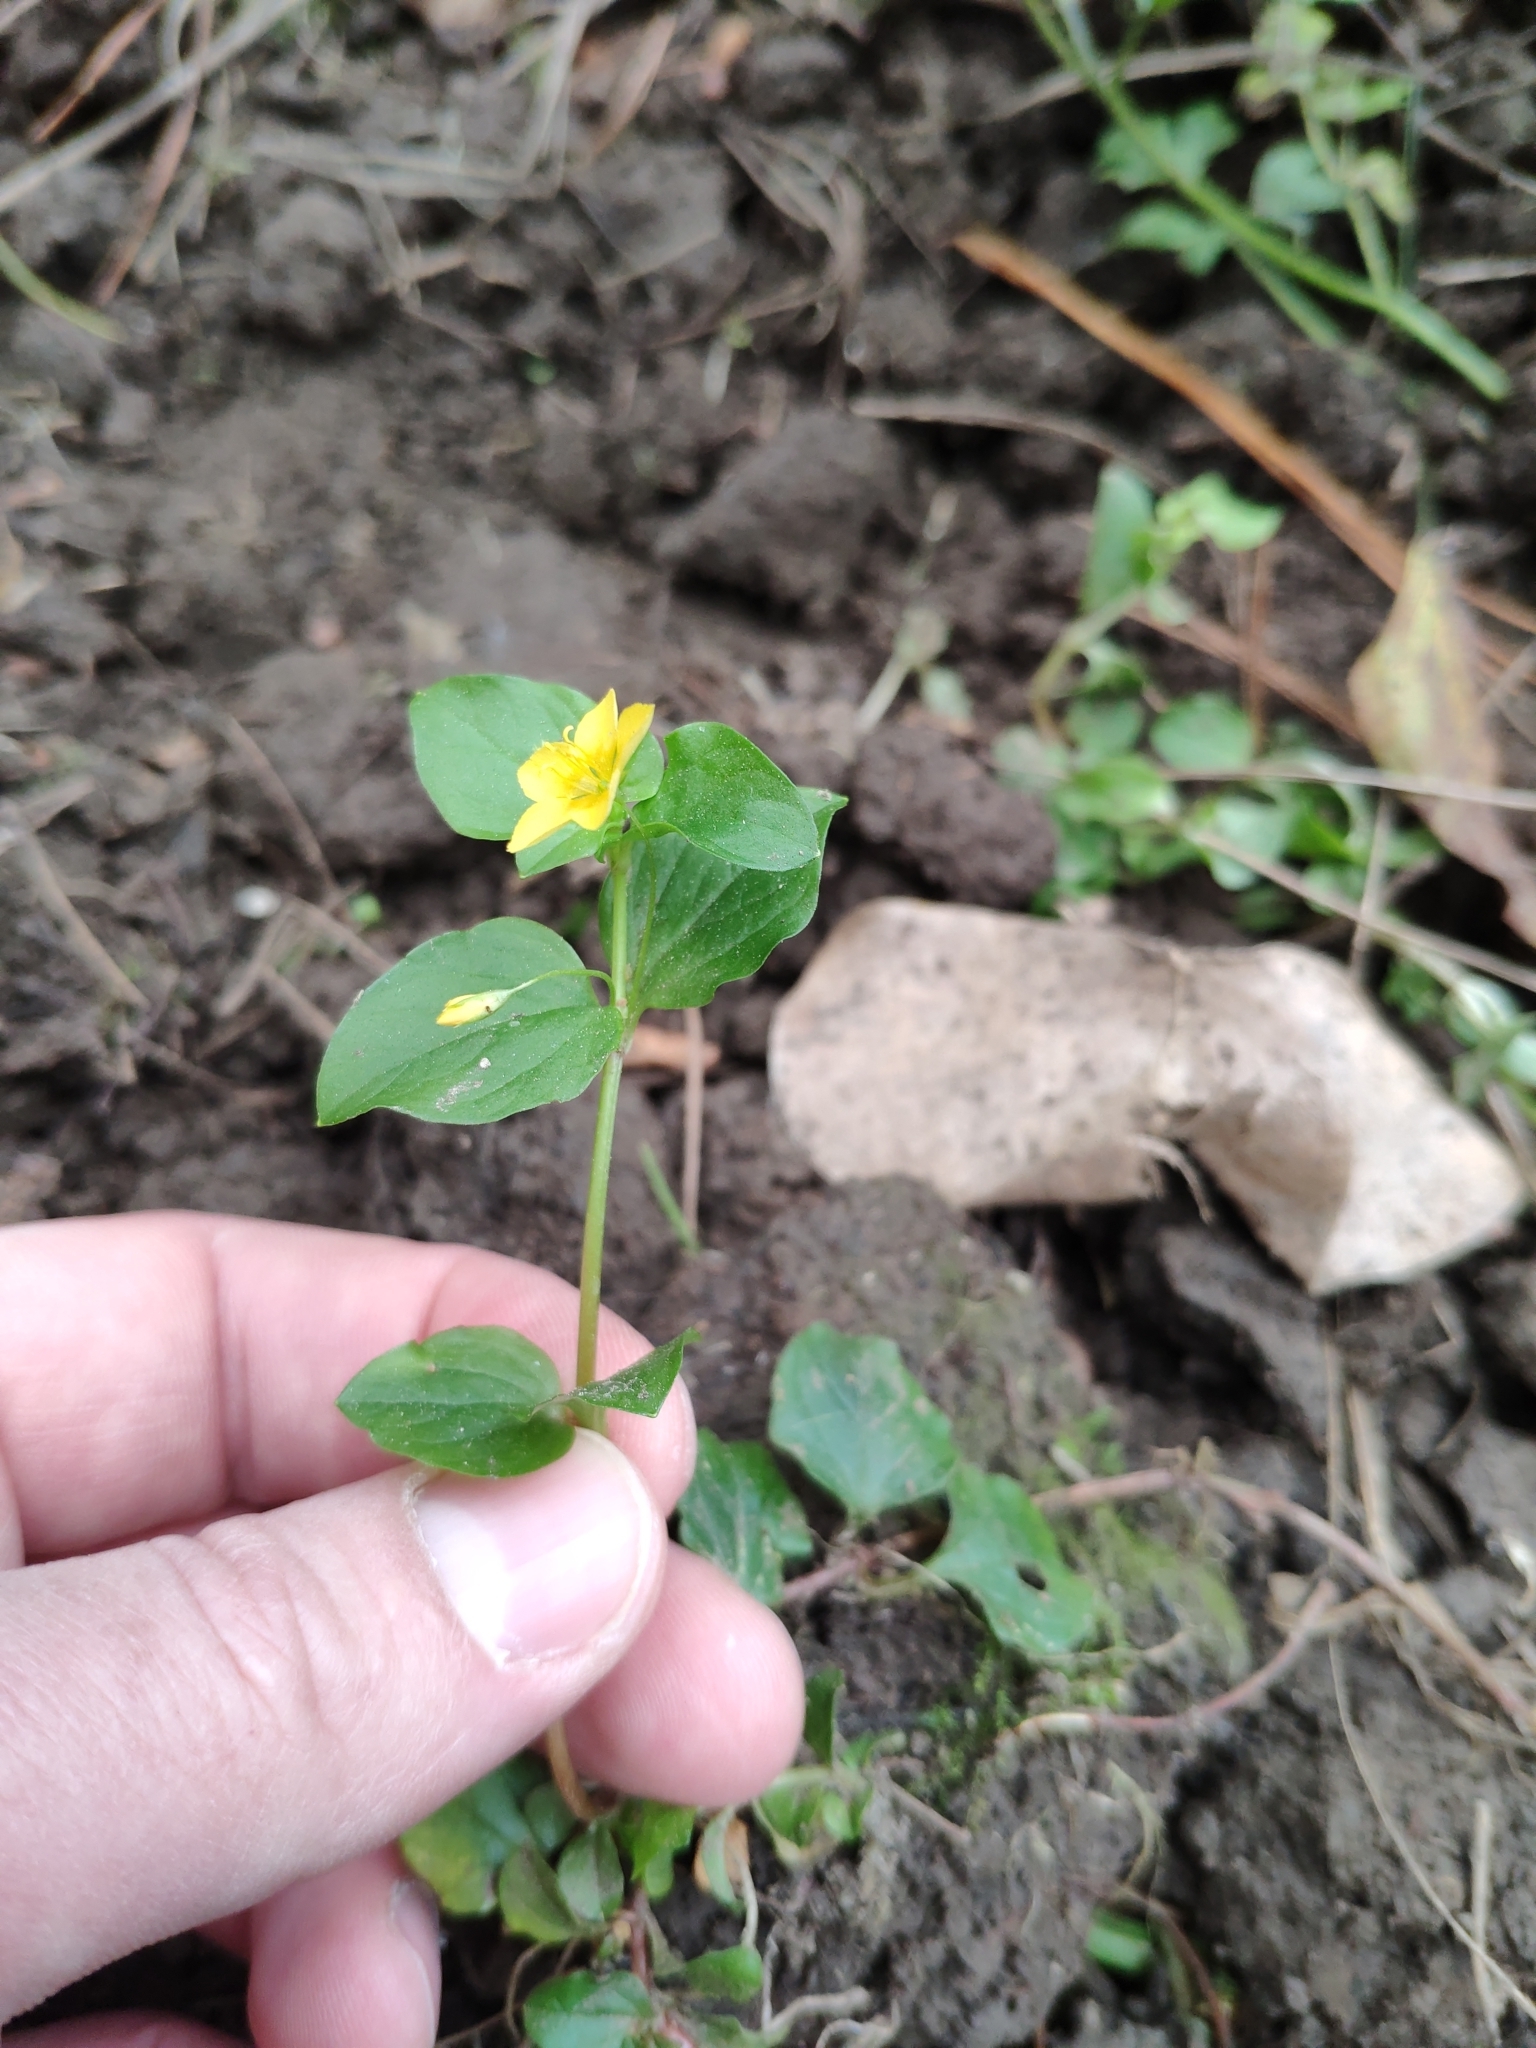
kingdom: Plantae
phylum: Tracheophyta
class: Magnoliopsida
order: Ericales
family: Primulaceae
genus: Lysimachia
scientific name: Lysimachia nemorum
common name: Yellow pimpernel
